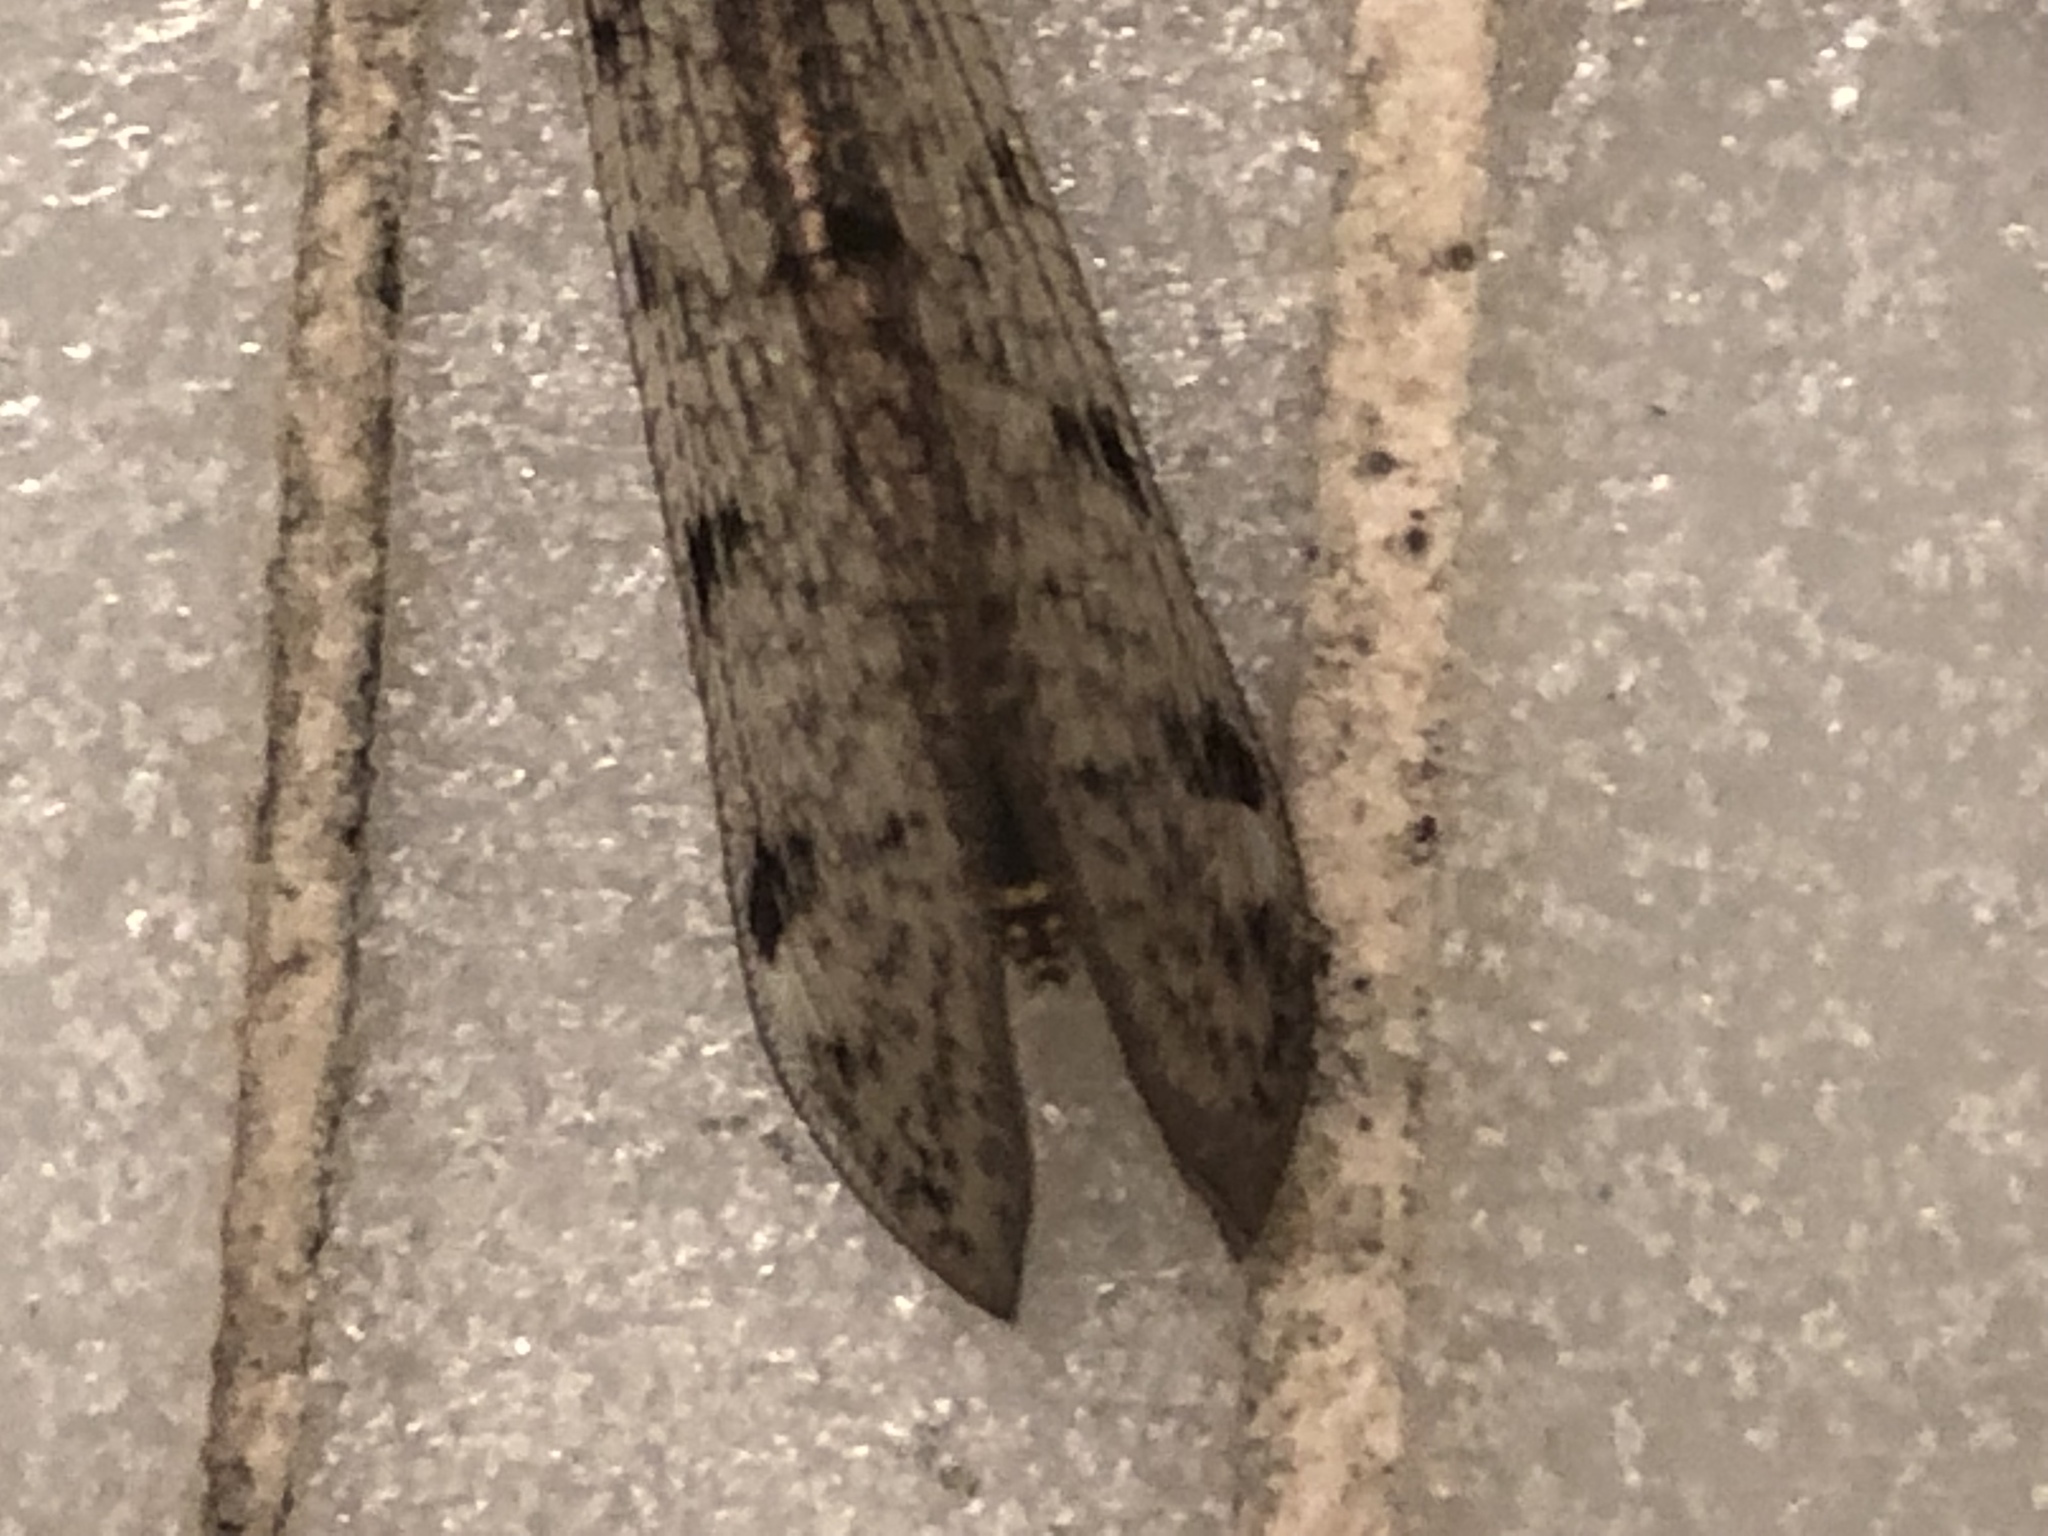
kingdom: Animalia
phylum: Arthropoda
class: Insecta
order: Neuroptera
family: Myrmeleontidae
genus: Euroleon
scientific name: Euroleon nostras
